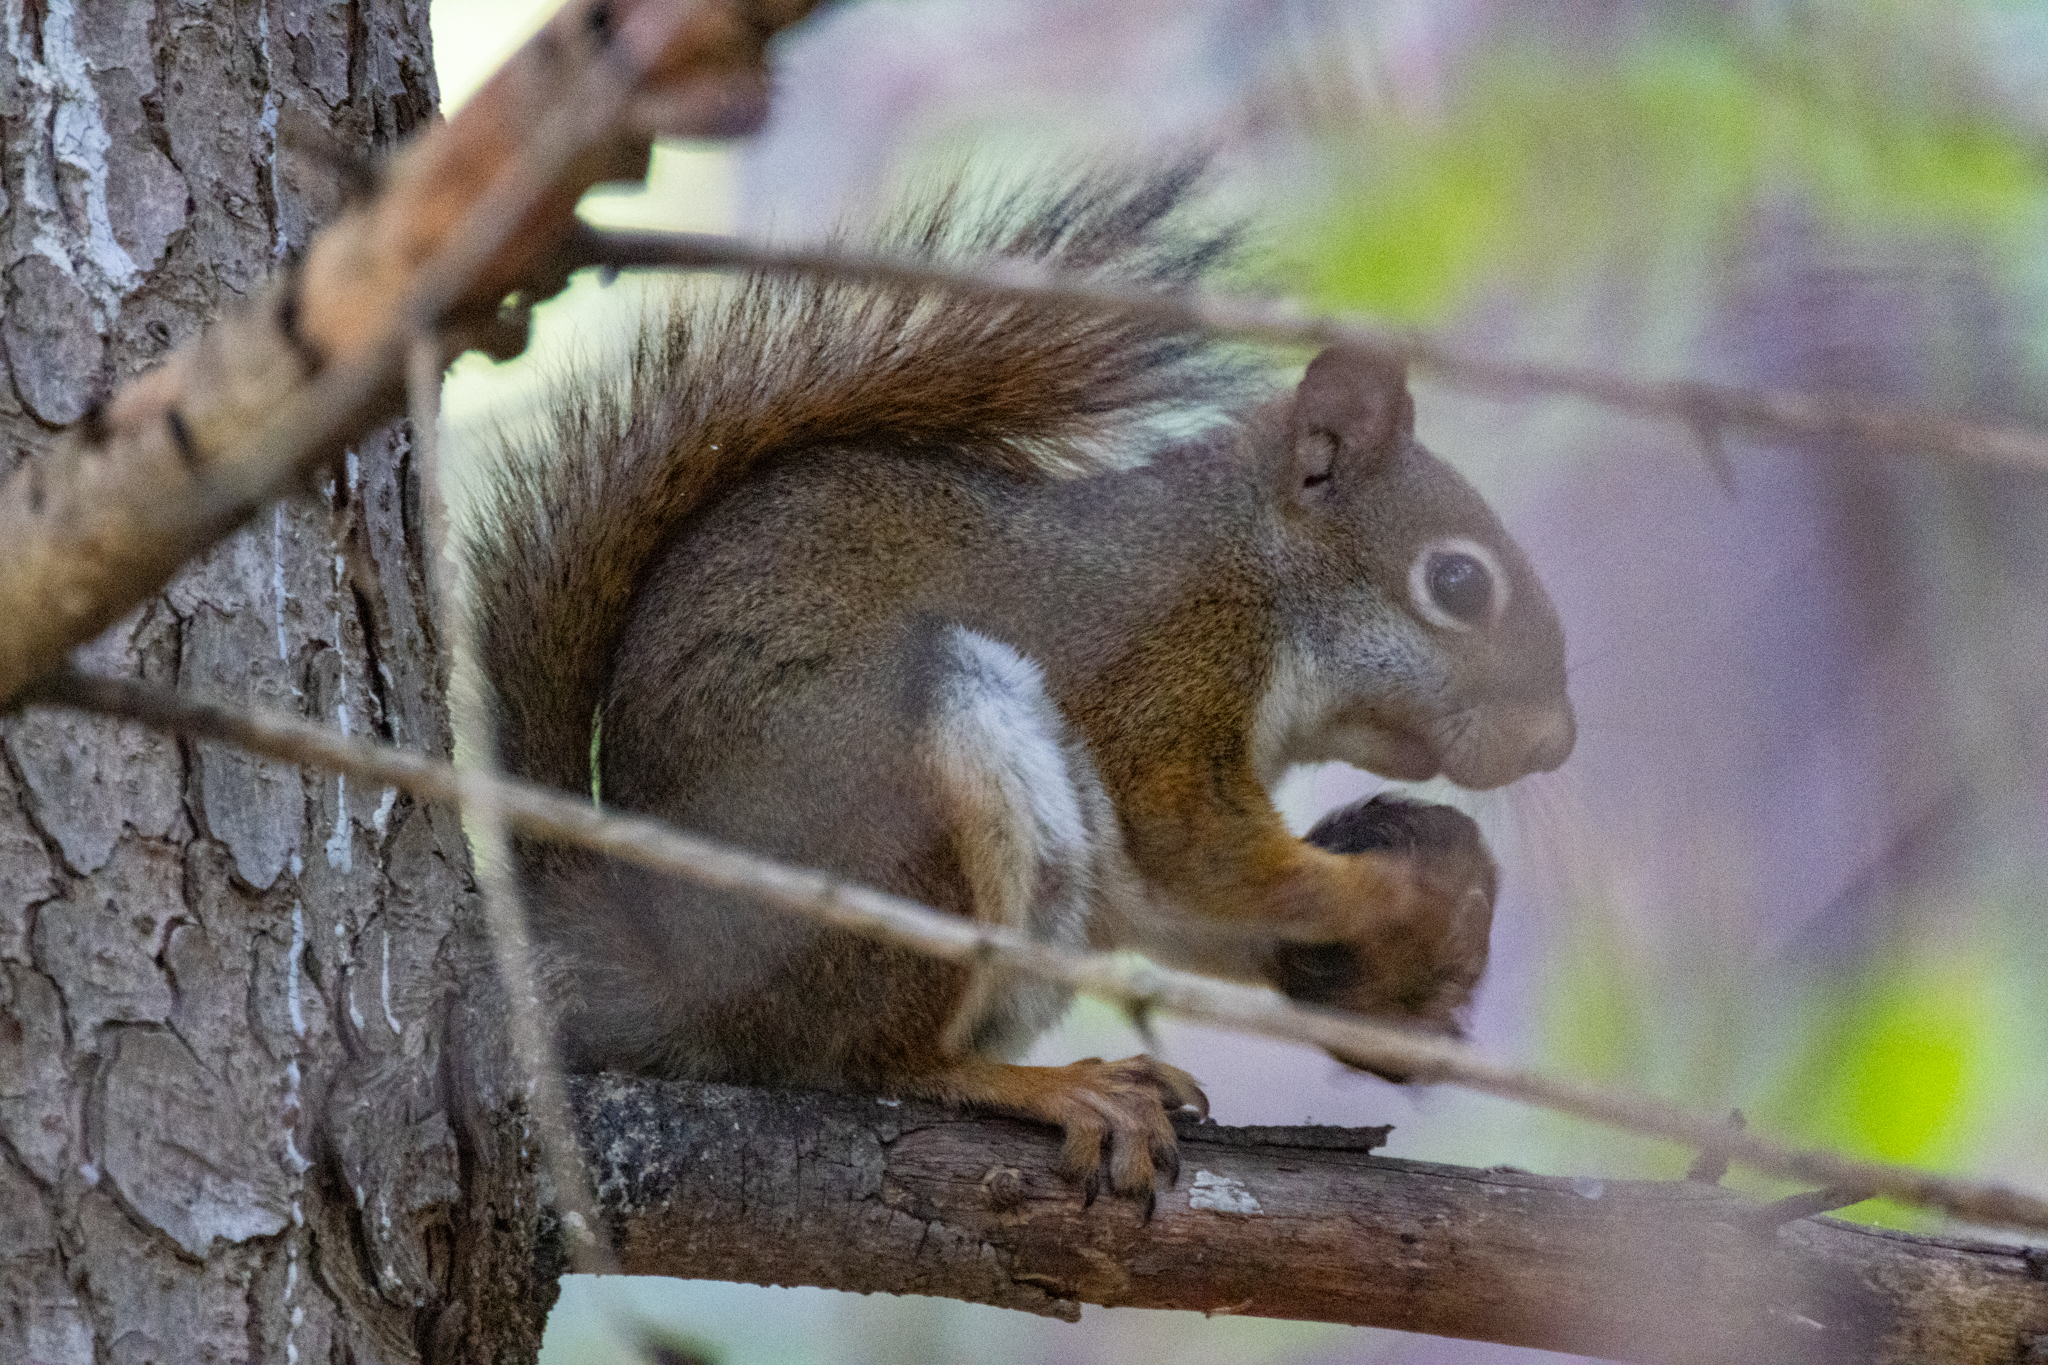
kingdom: Animalia
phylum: Chordata
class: Mammalia
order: Rodentia
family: Sciuridae
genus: Tamiasciurus
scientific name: Tamiasciurus hudsonicus
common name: Red squirrel
